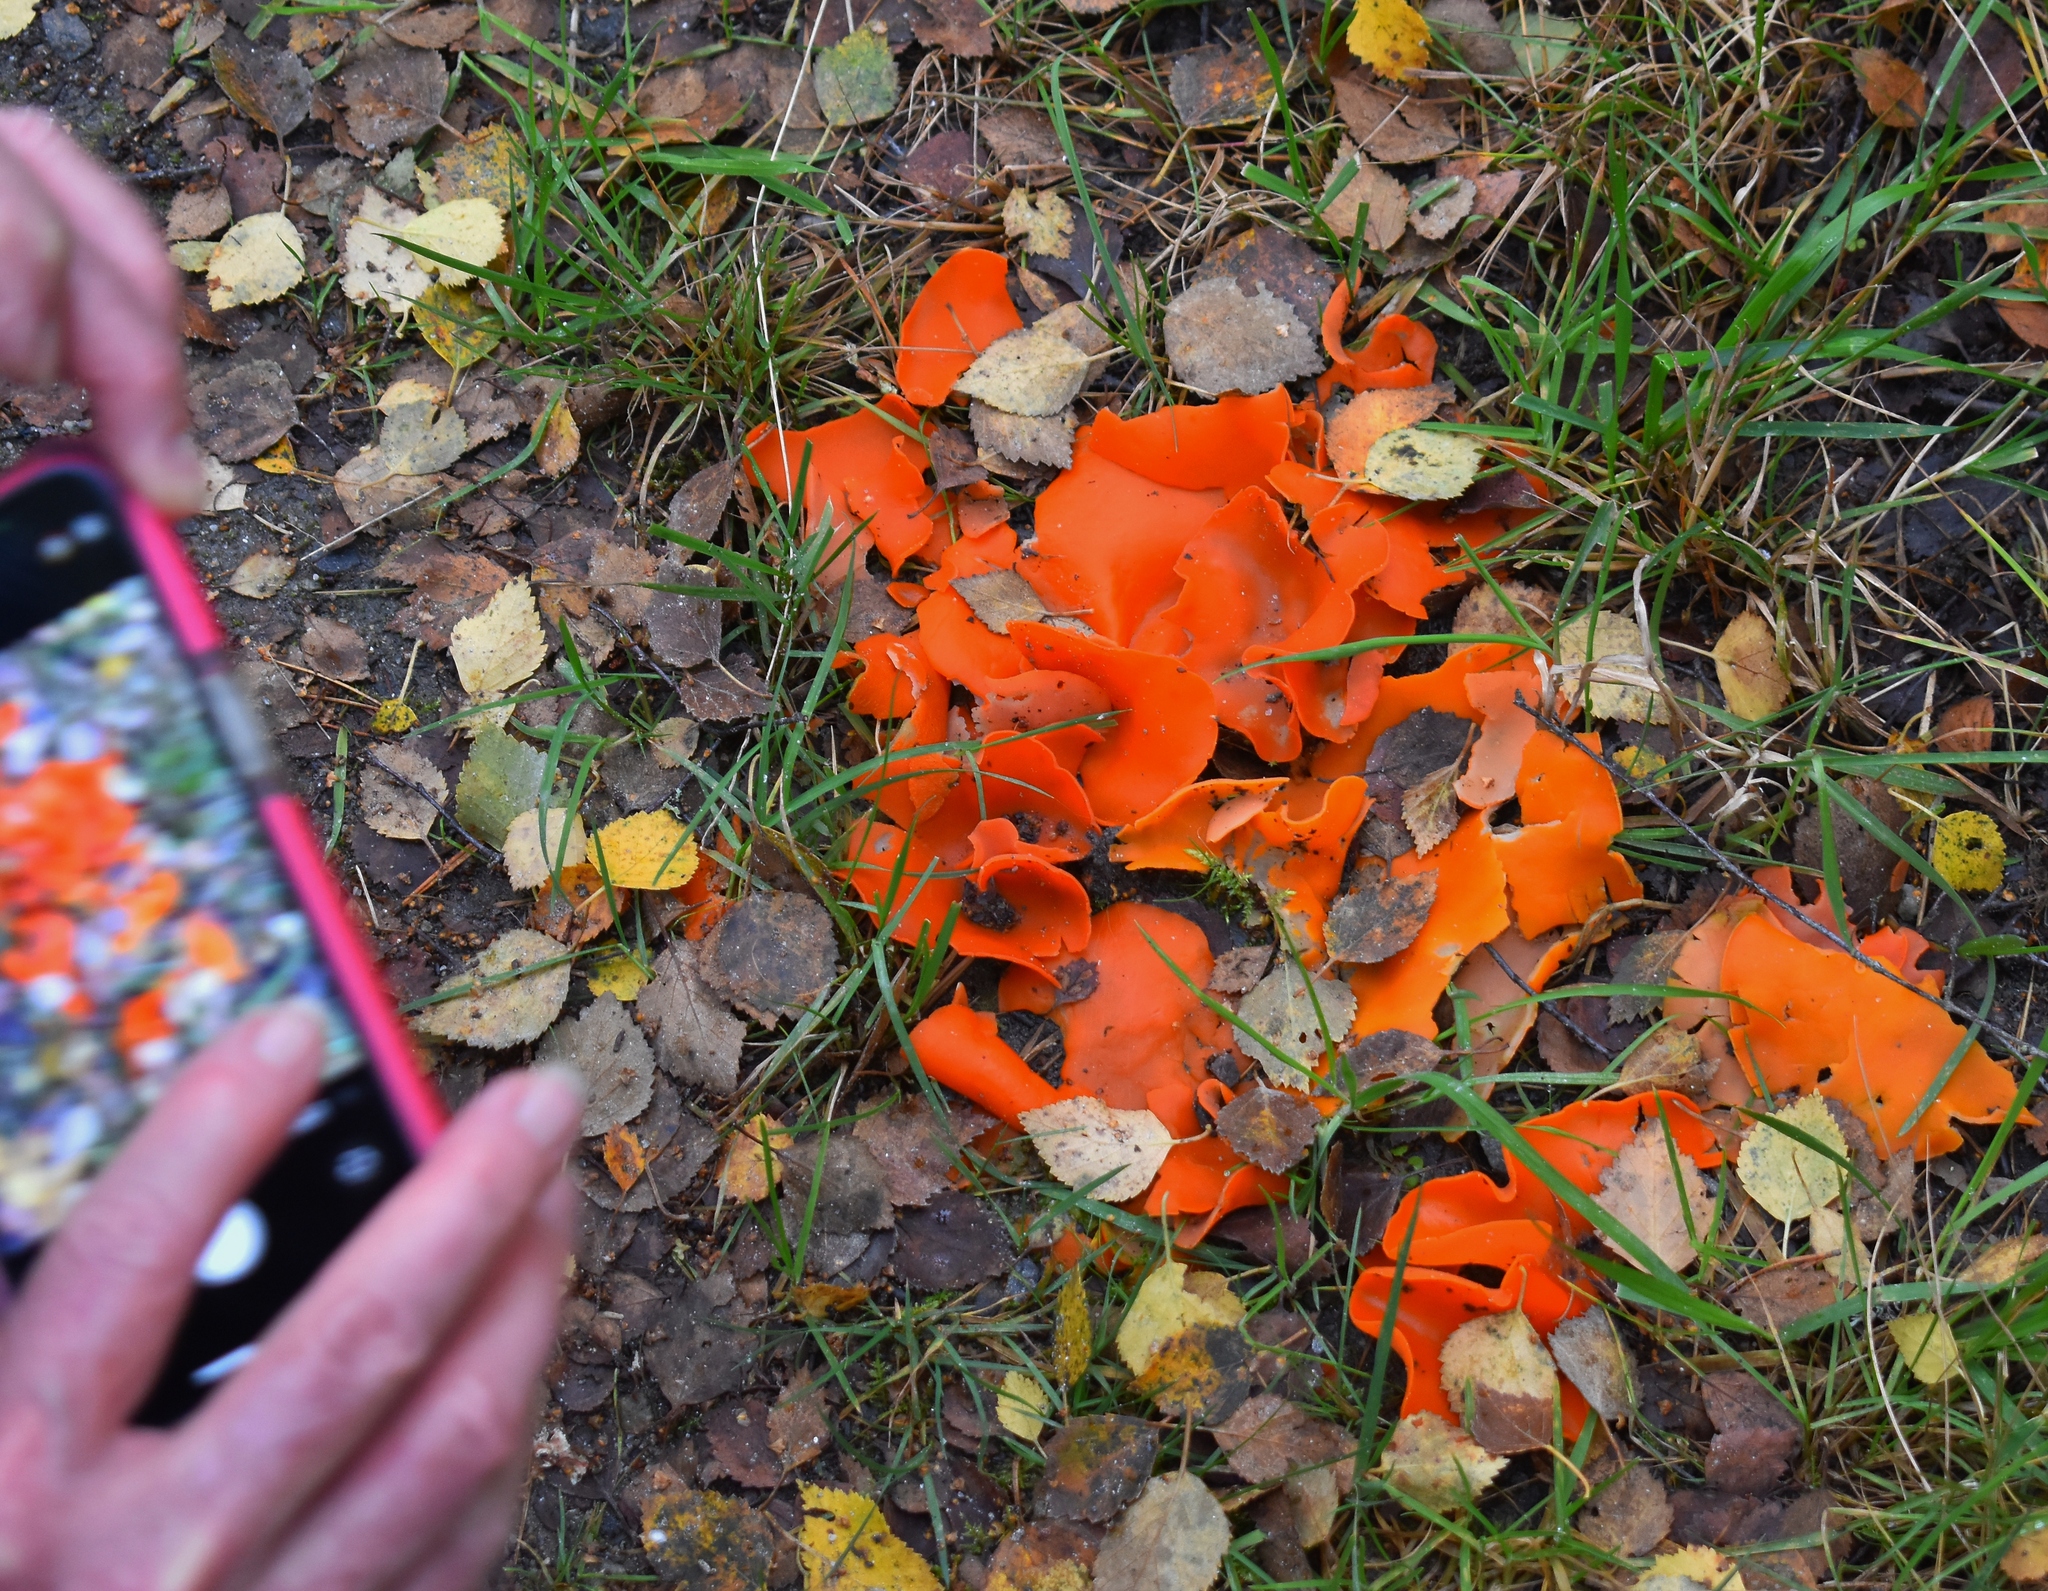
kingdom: Fungi
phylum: Ascomycota
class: Pezizomycetes
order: Pezizales
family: Pyronemataceae
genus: Aleuria
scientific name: Aleuria aurantia
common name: Orange peel fungus
